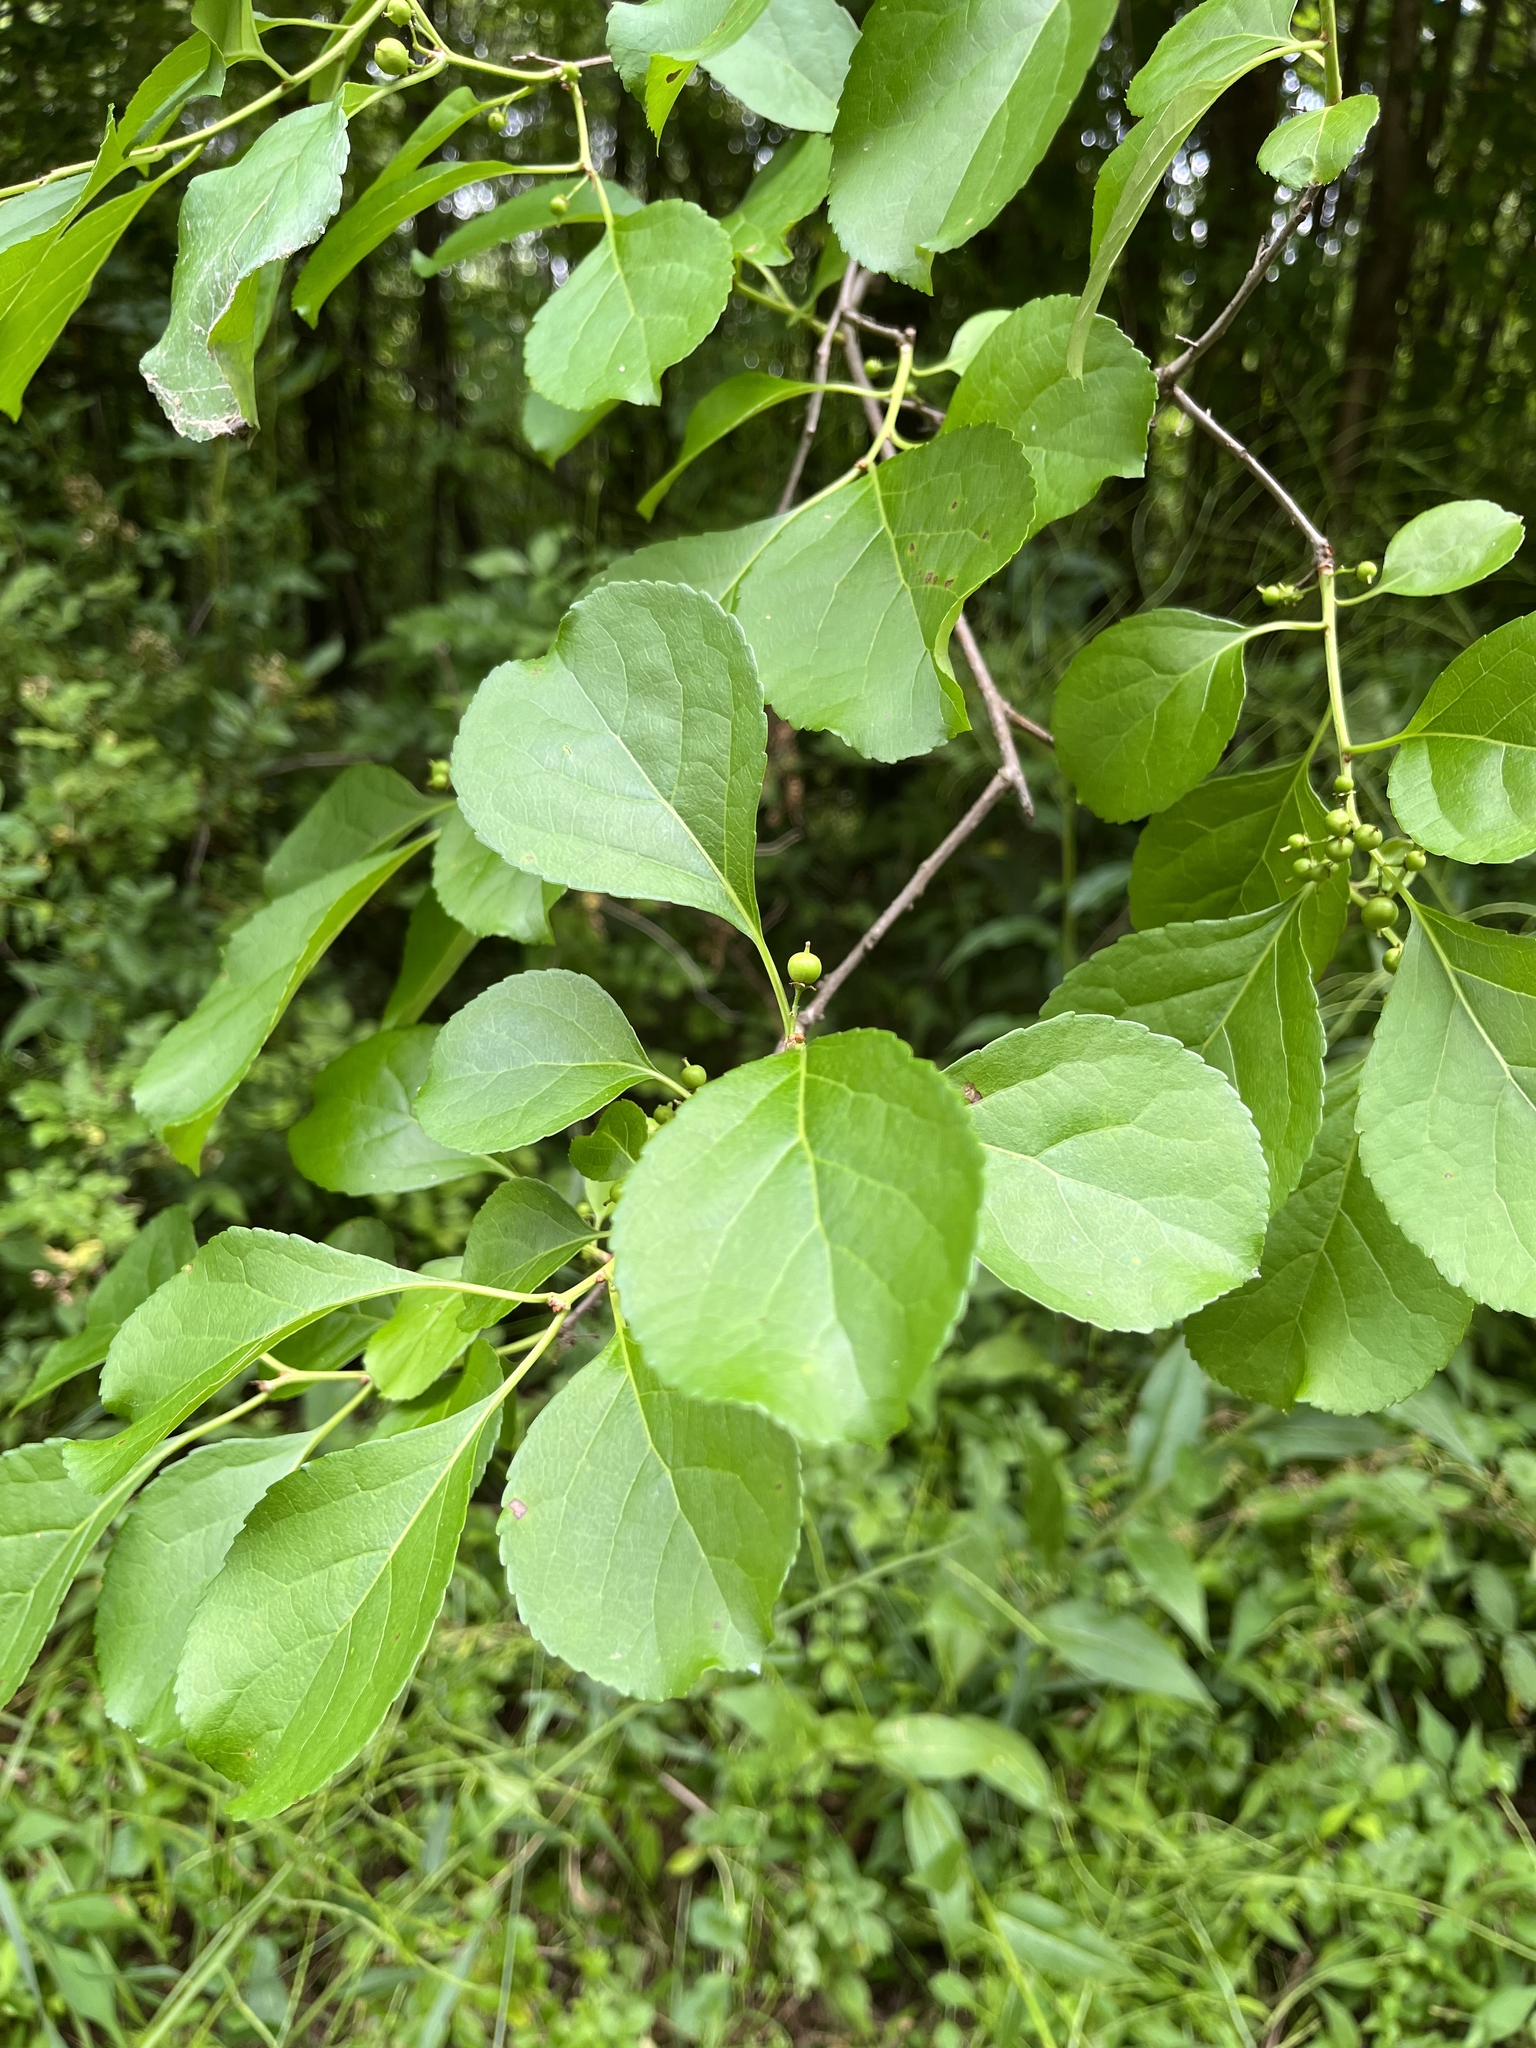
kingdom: Plantae
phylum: Tracheophyta
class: Magnoliopsida
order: Celastrales
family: Celastraceae
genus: Celastrus
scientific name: Celastrus orbiculatus
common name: Oriental bittersweet
